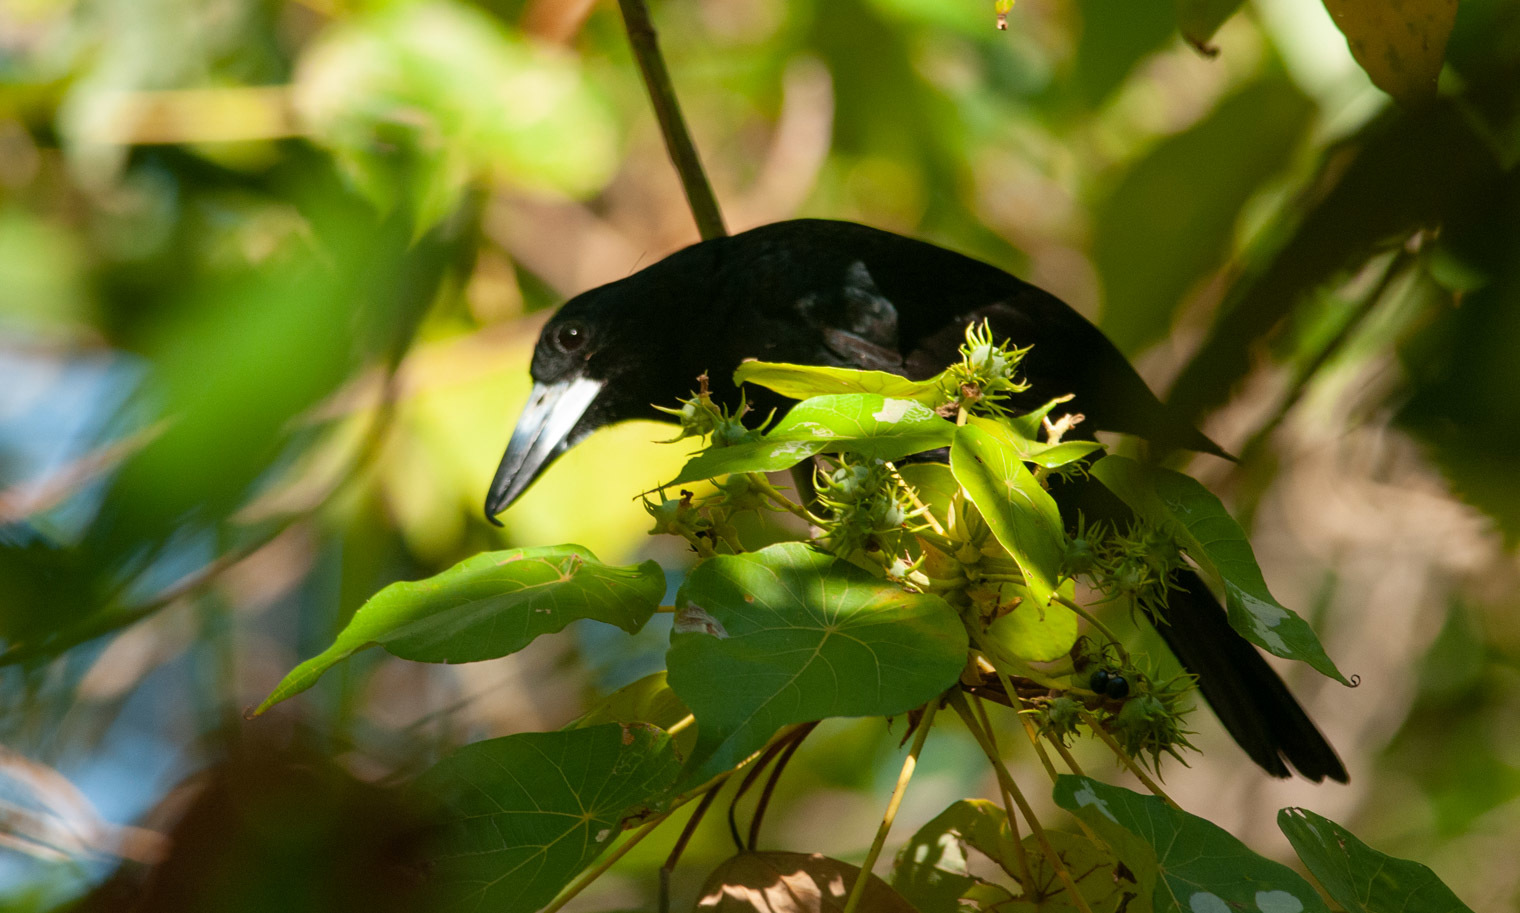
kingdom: Animalia
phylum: Chordata
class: Aves
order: Passeriformes
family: Artamidae
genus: Melloria
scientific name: Melloria quoyi
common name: Black butcherbird
